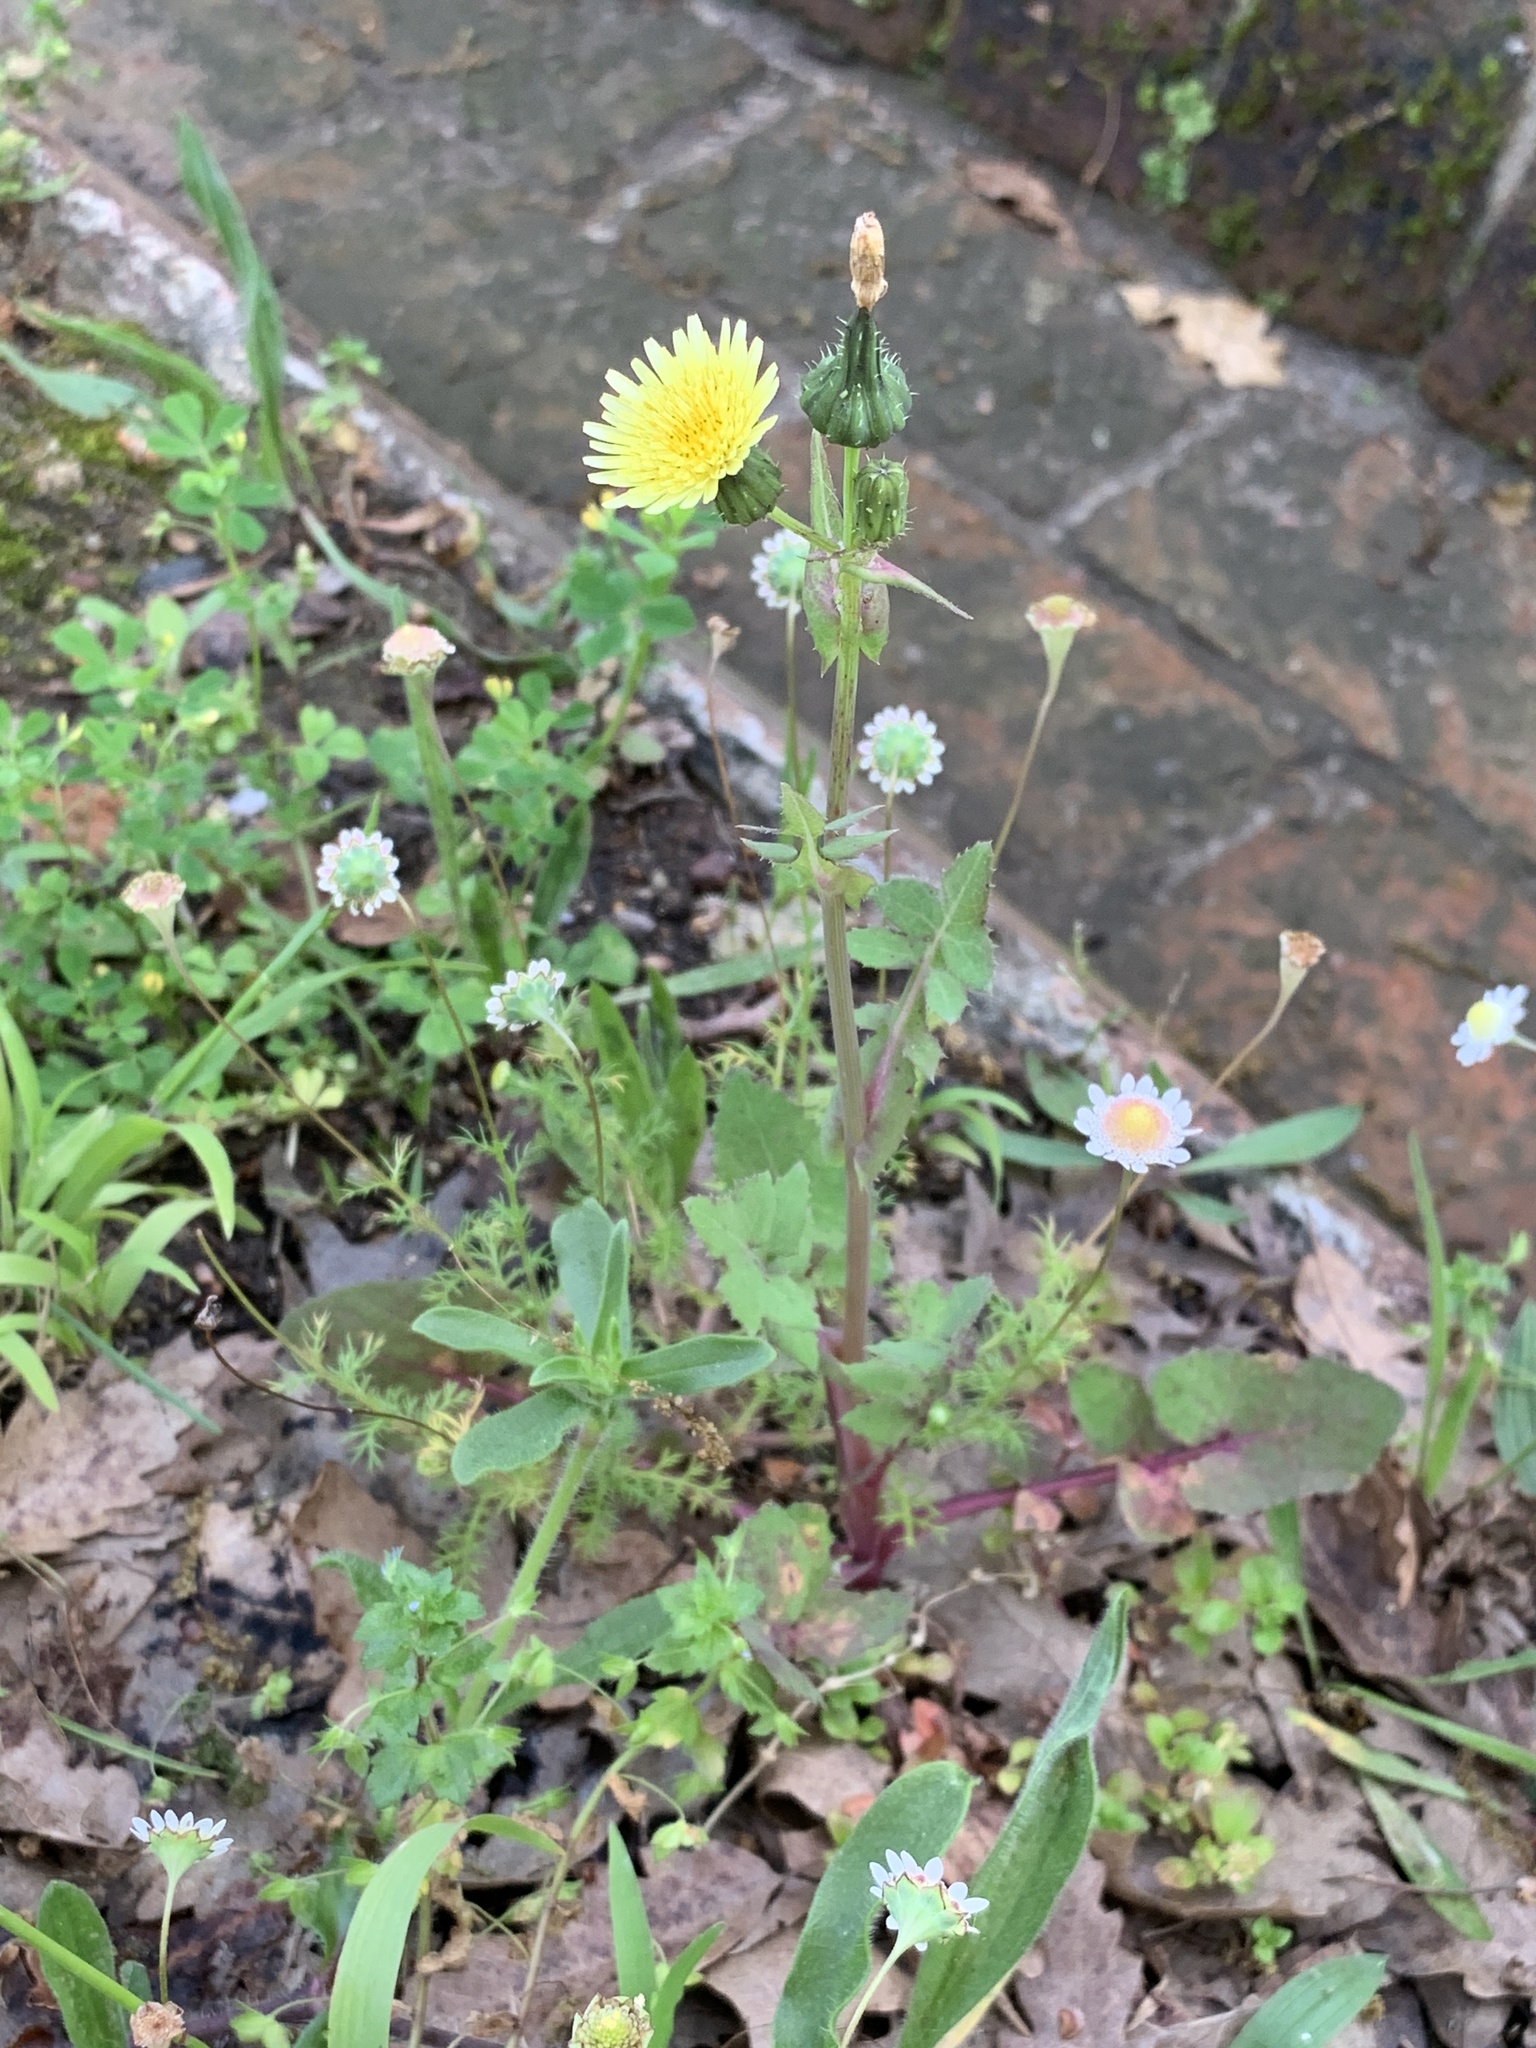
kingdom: Plantae
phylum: Tracheophyta
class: Magnoliopsida
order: Asterales
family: Asteraceae
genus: Sonchus
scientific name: Sonchus oleraceus
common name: Common sowthistle
